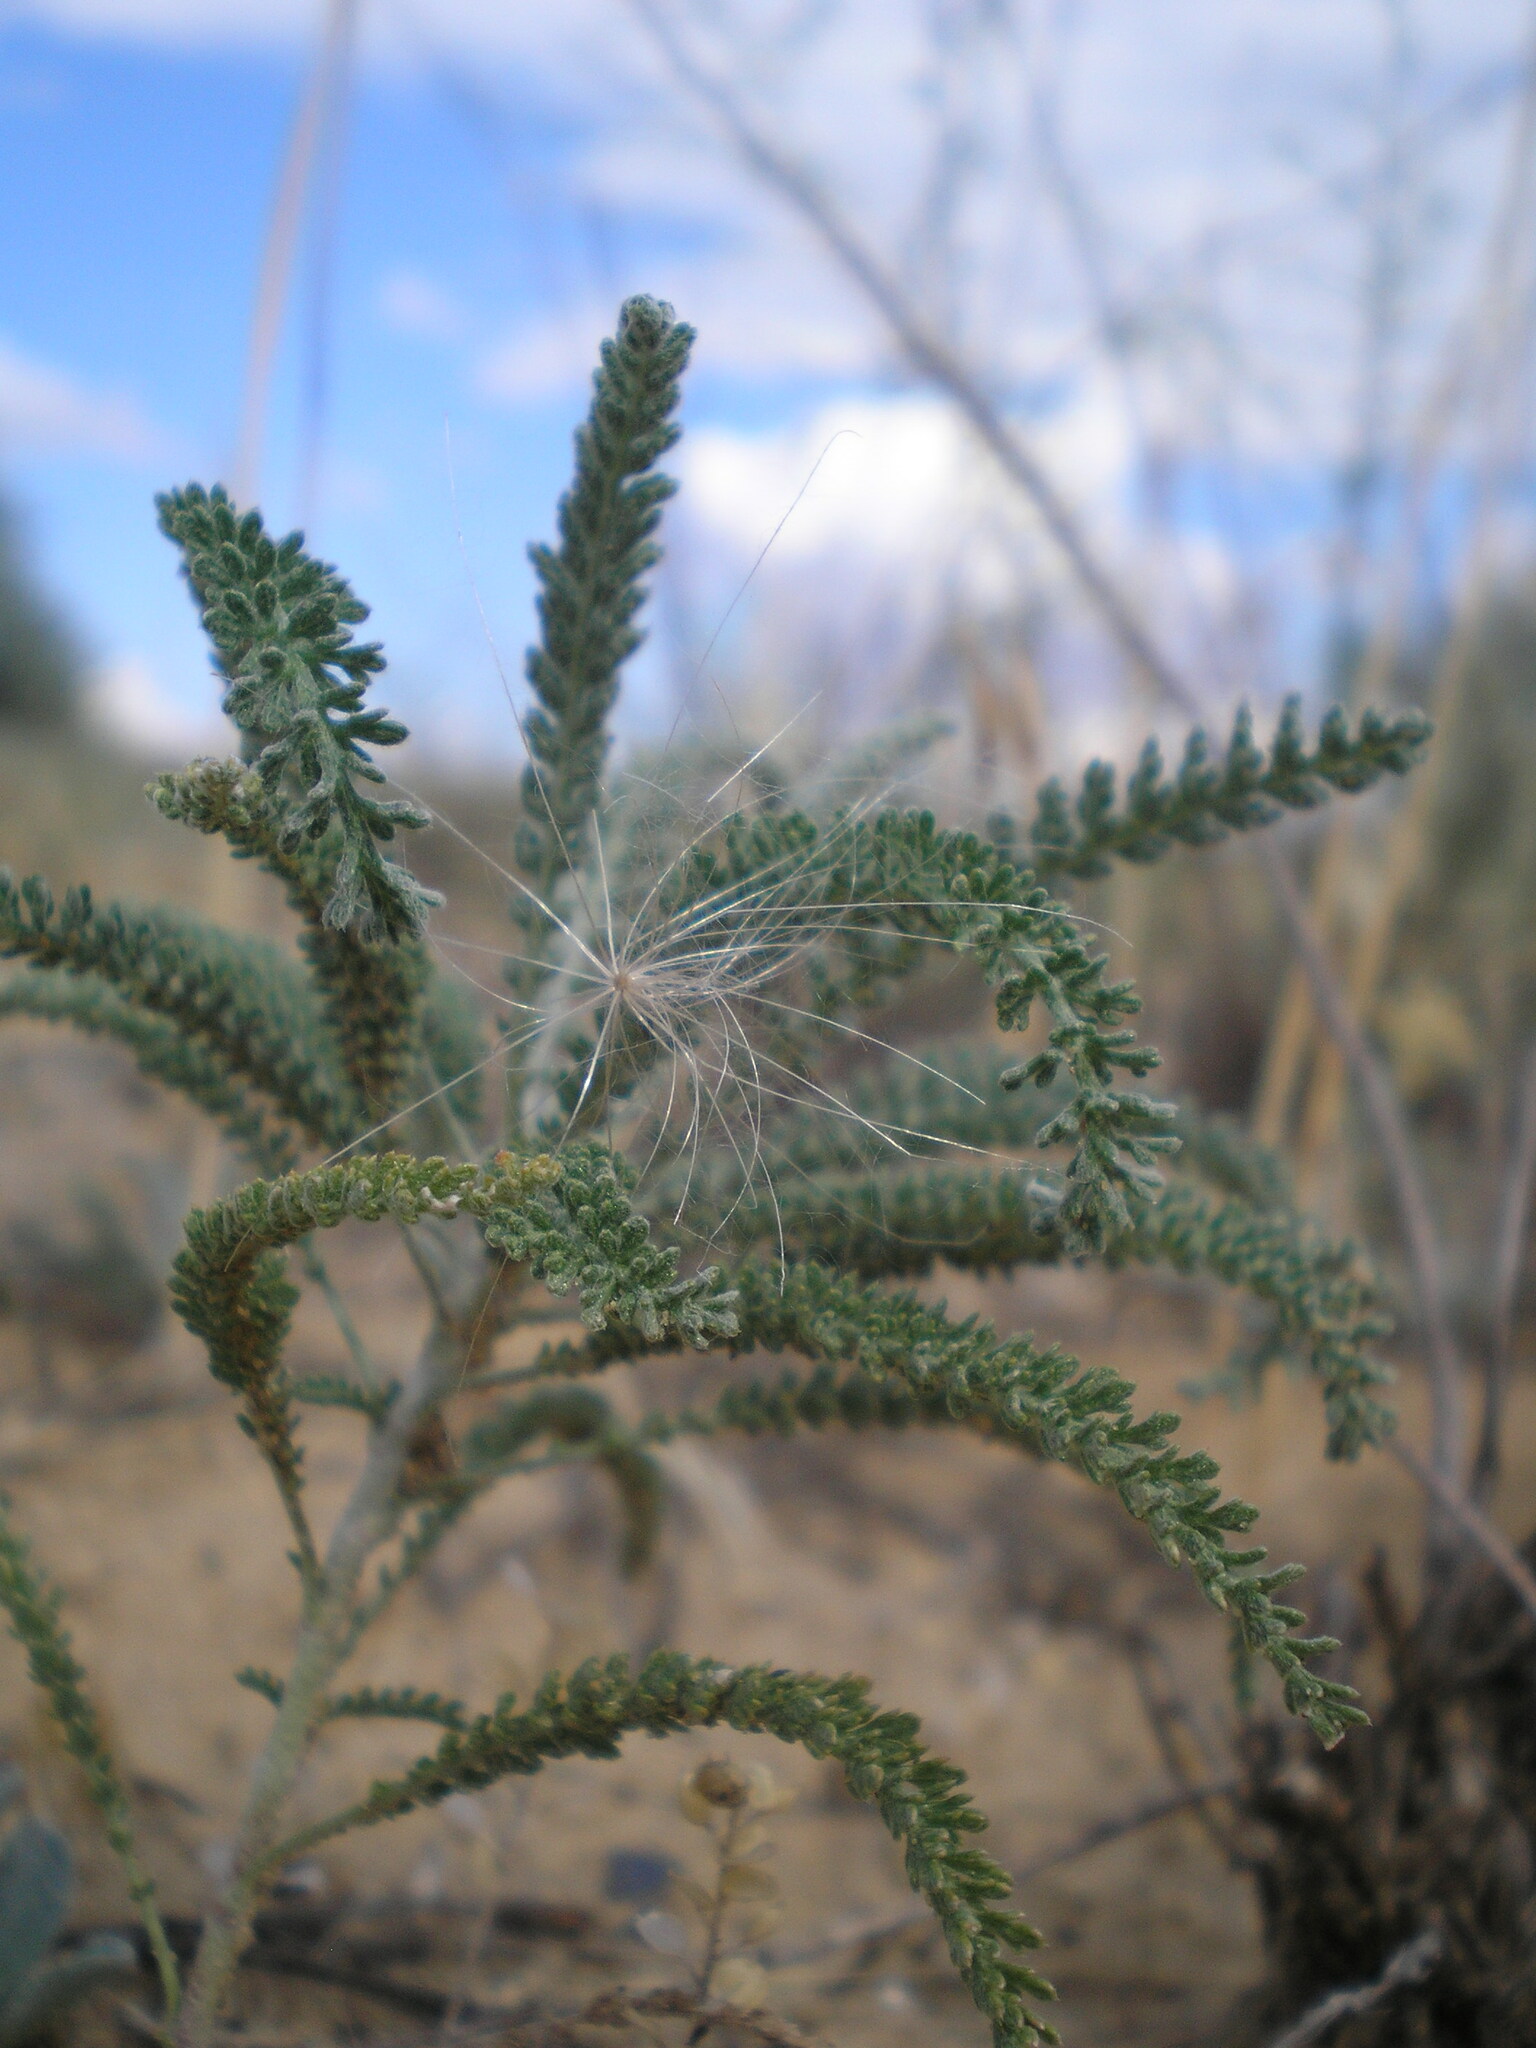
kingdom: Plantae
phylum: Tracheophyta
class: Magnoliopsida
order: Asterales
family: Asteraceae
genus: Achillea
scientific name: Achillea micrantha
